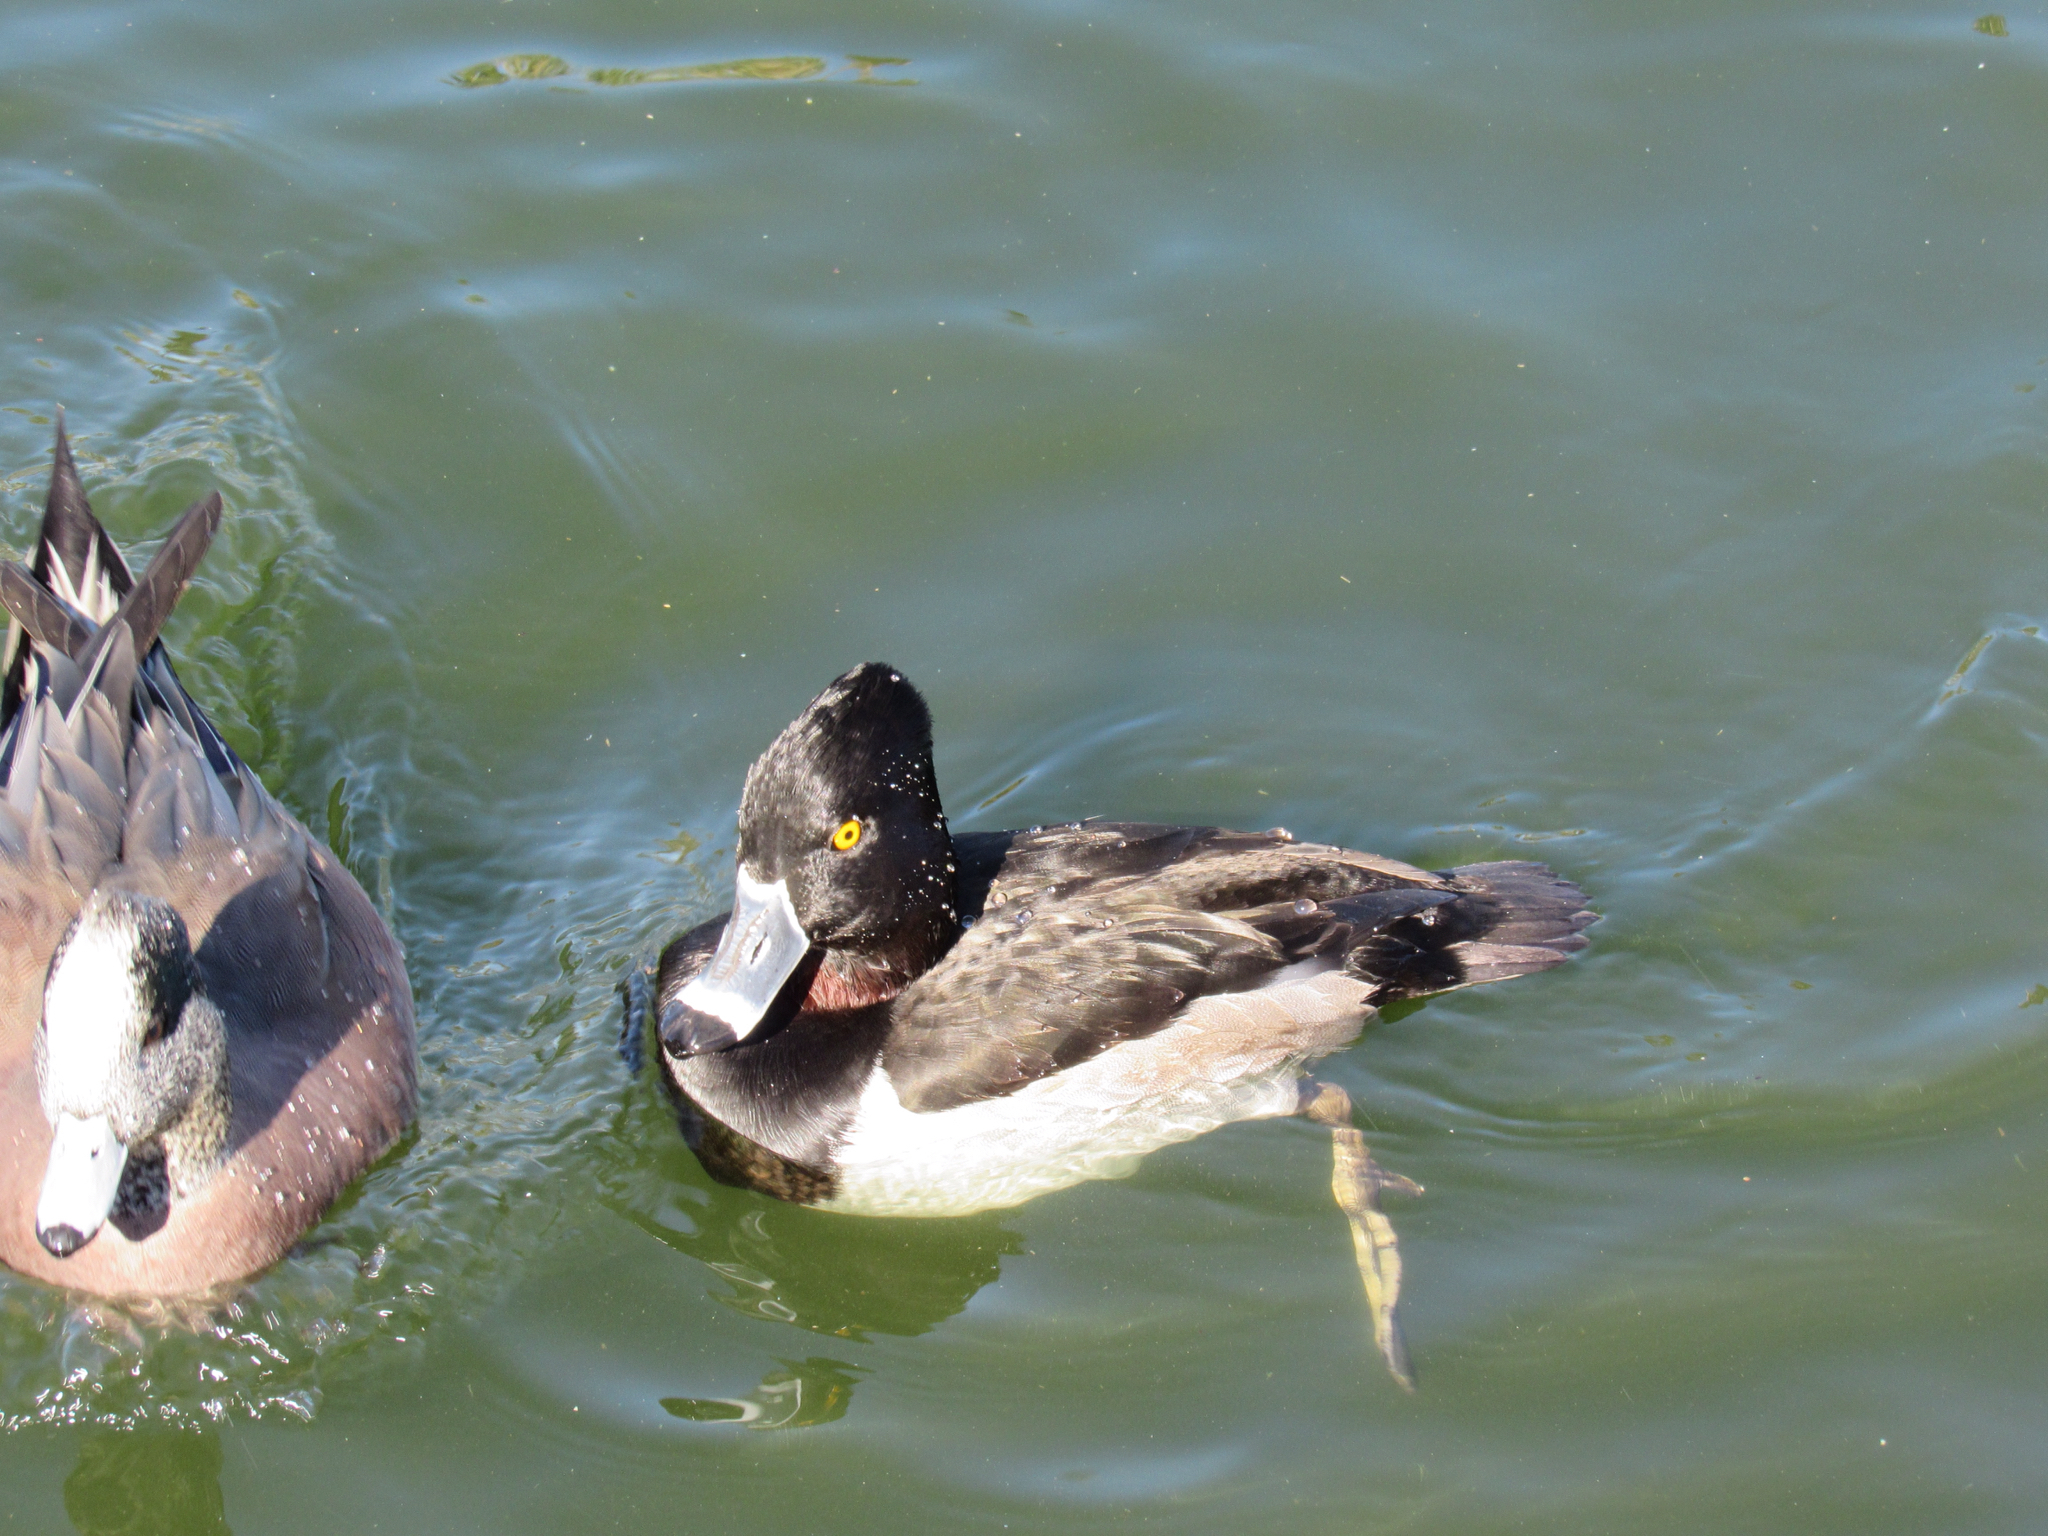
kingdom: Animalia
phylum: Chordata
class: Aves
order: Anseriformes
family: Anatidae
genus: Aythya
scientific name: Aythya collaris
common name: Ring-necked duck
